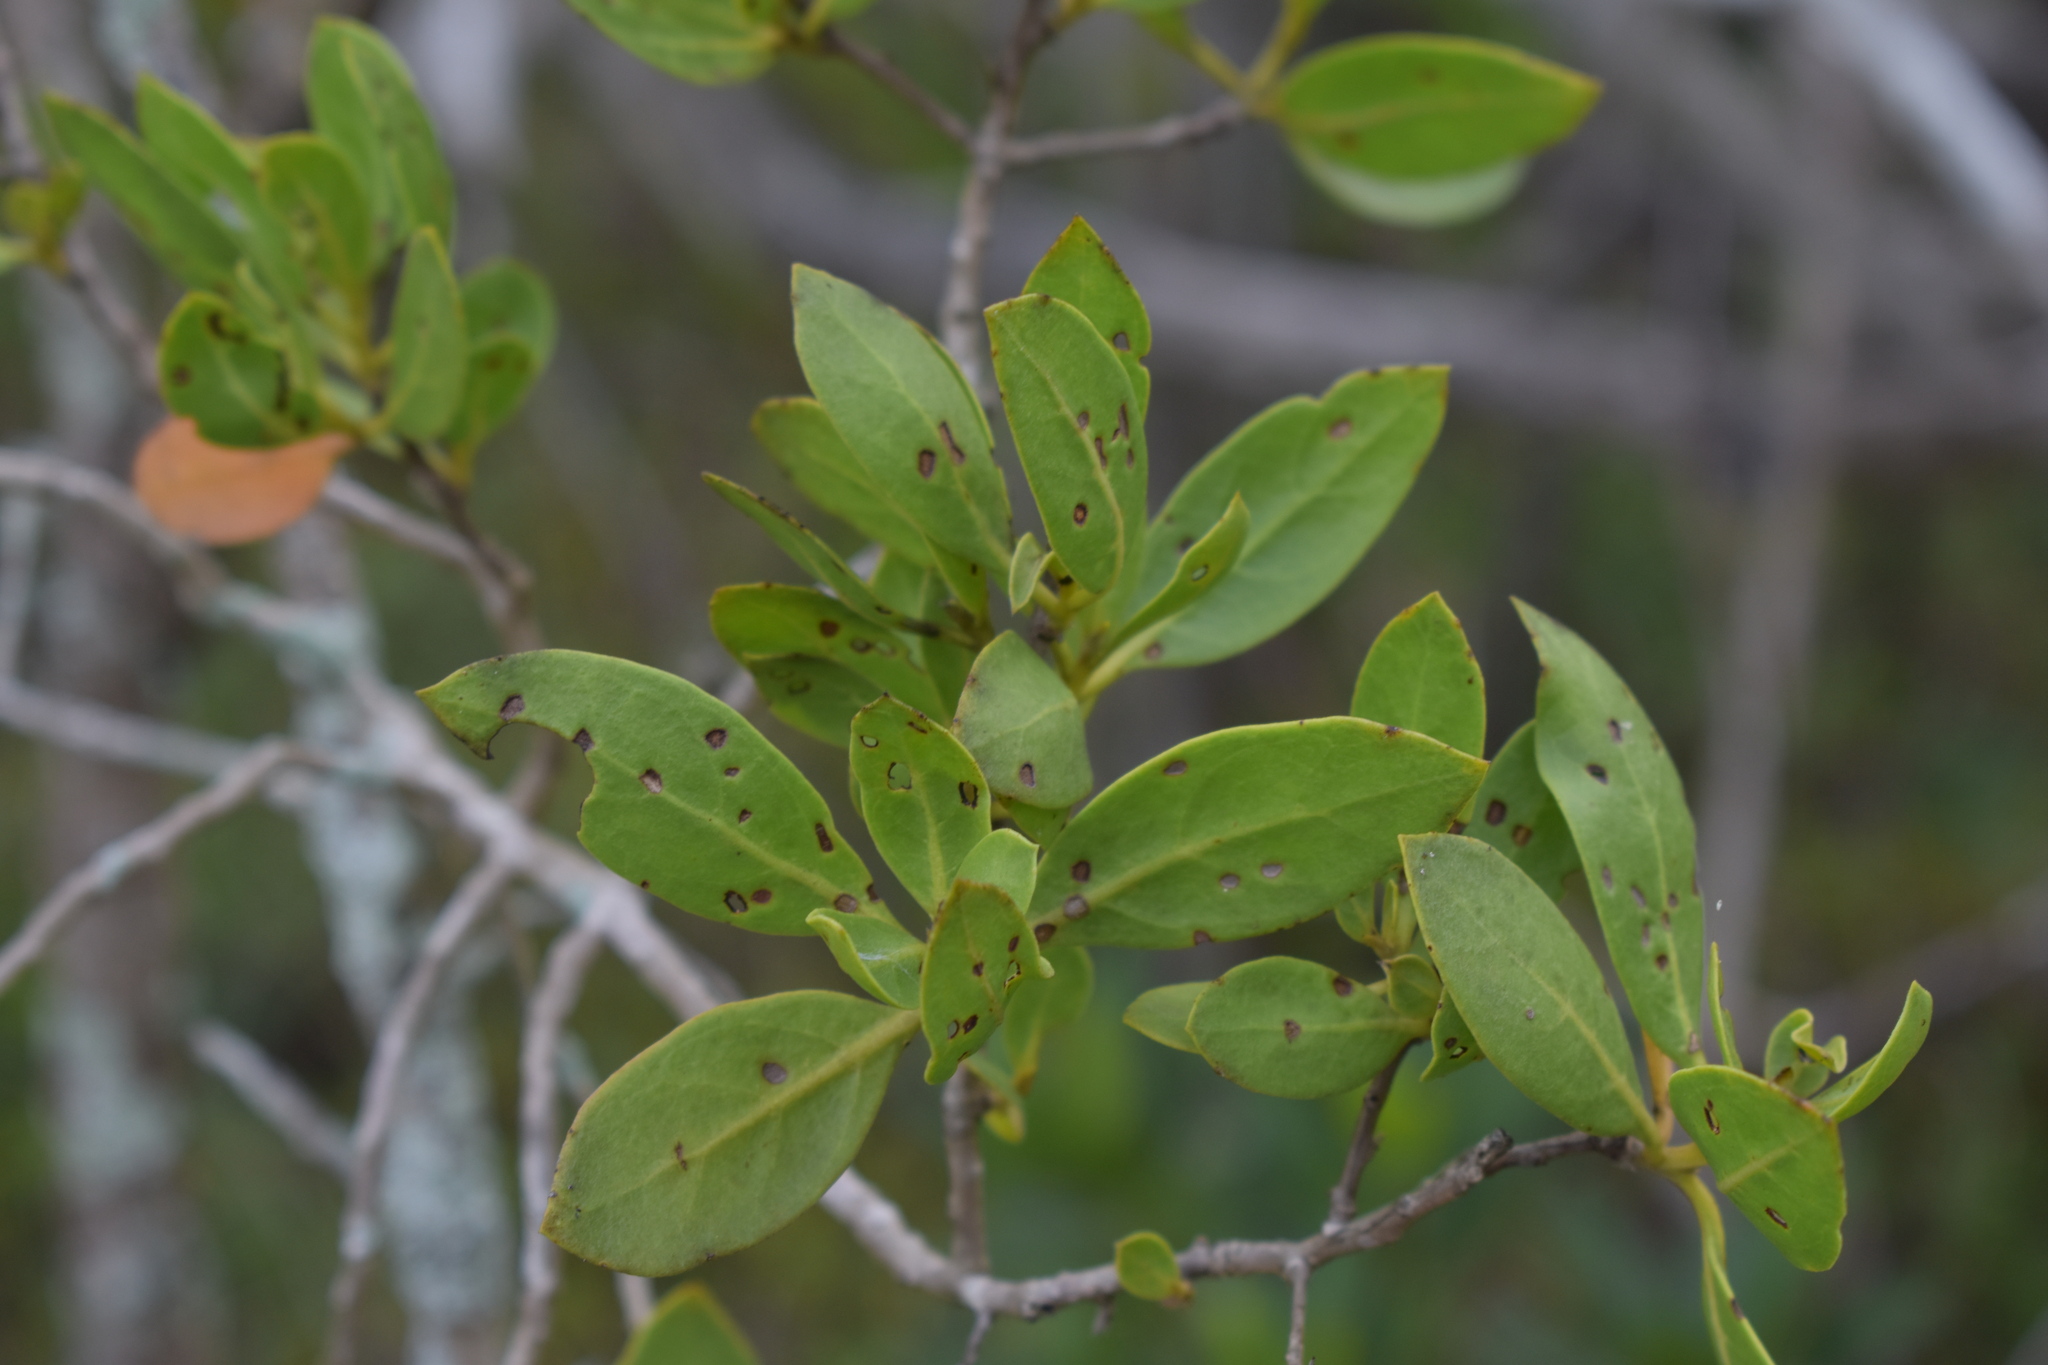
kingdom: Plantae
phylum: Tracheophyta
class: Magnoliopsida
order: Myrtales
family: Combretaceae
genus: Conocarpus
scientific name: Conocarpus erectus
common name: Button mangrove
